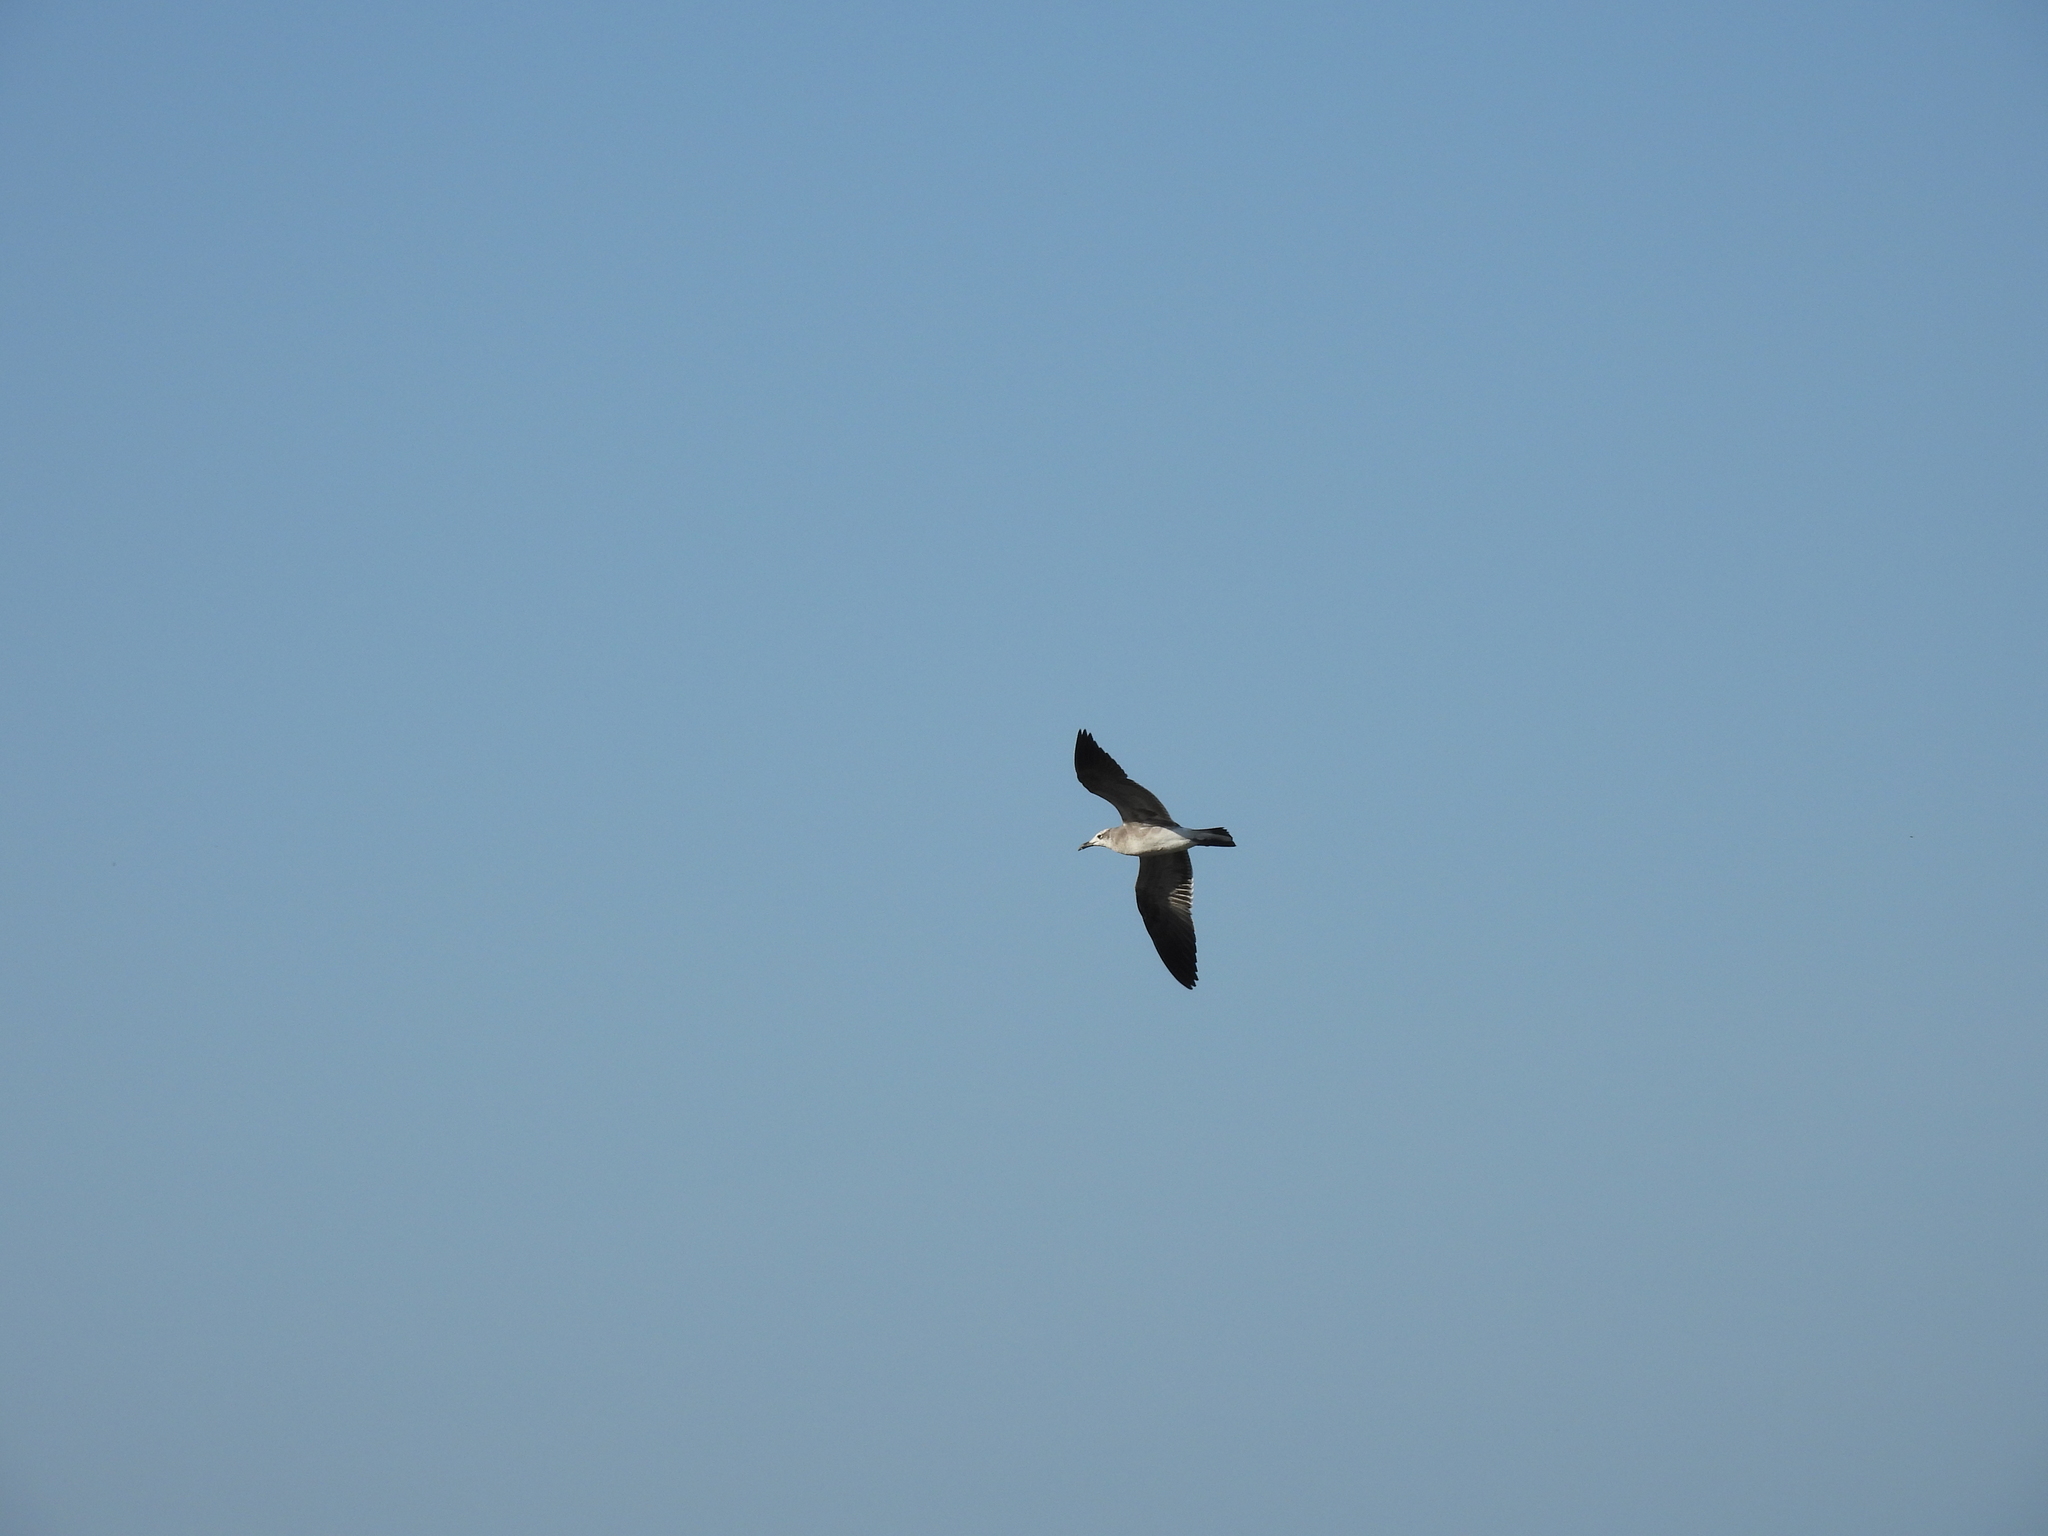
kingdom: Animalia
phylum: Chordata
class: Aves
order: Charadriiformes
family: Laridae
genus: Leucophaeus
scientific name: Leucophaeus atricilla
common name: Laughing gull
